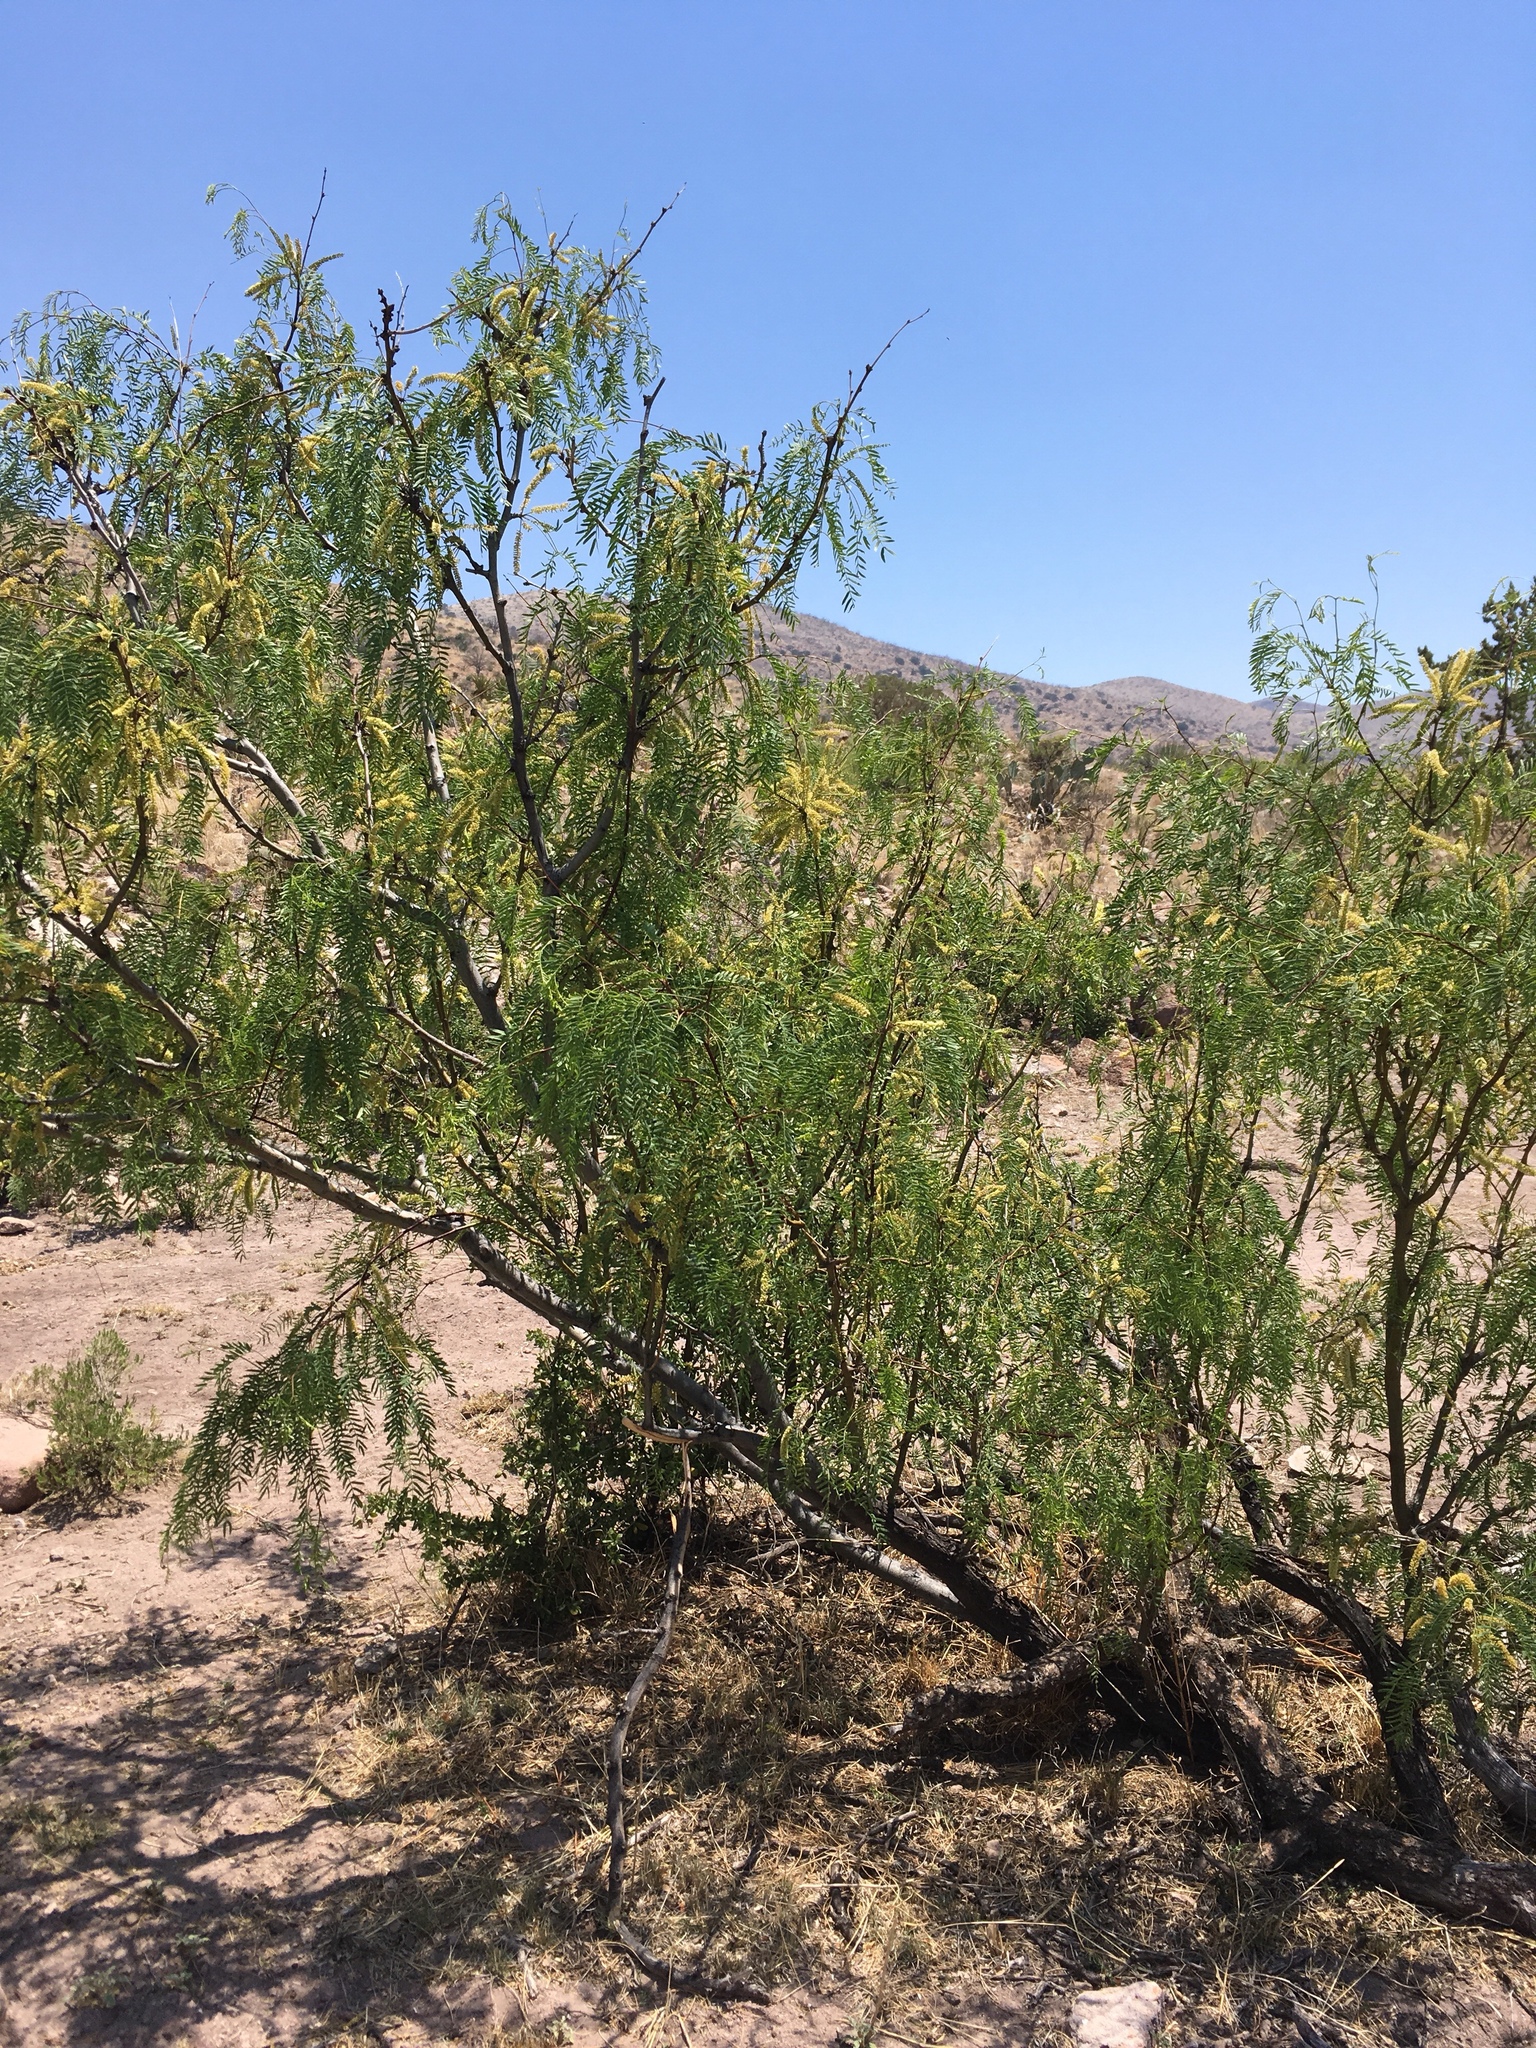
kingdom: Plantae
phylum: Tracheophyta
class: Magnoliopsida
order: Fabales
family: Fabaceae
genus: Prosopis
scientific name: Prosopis glandulosa
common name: Honey mesquite
